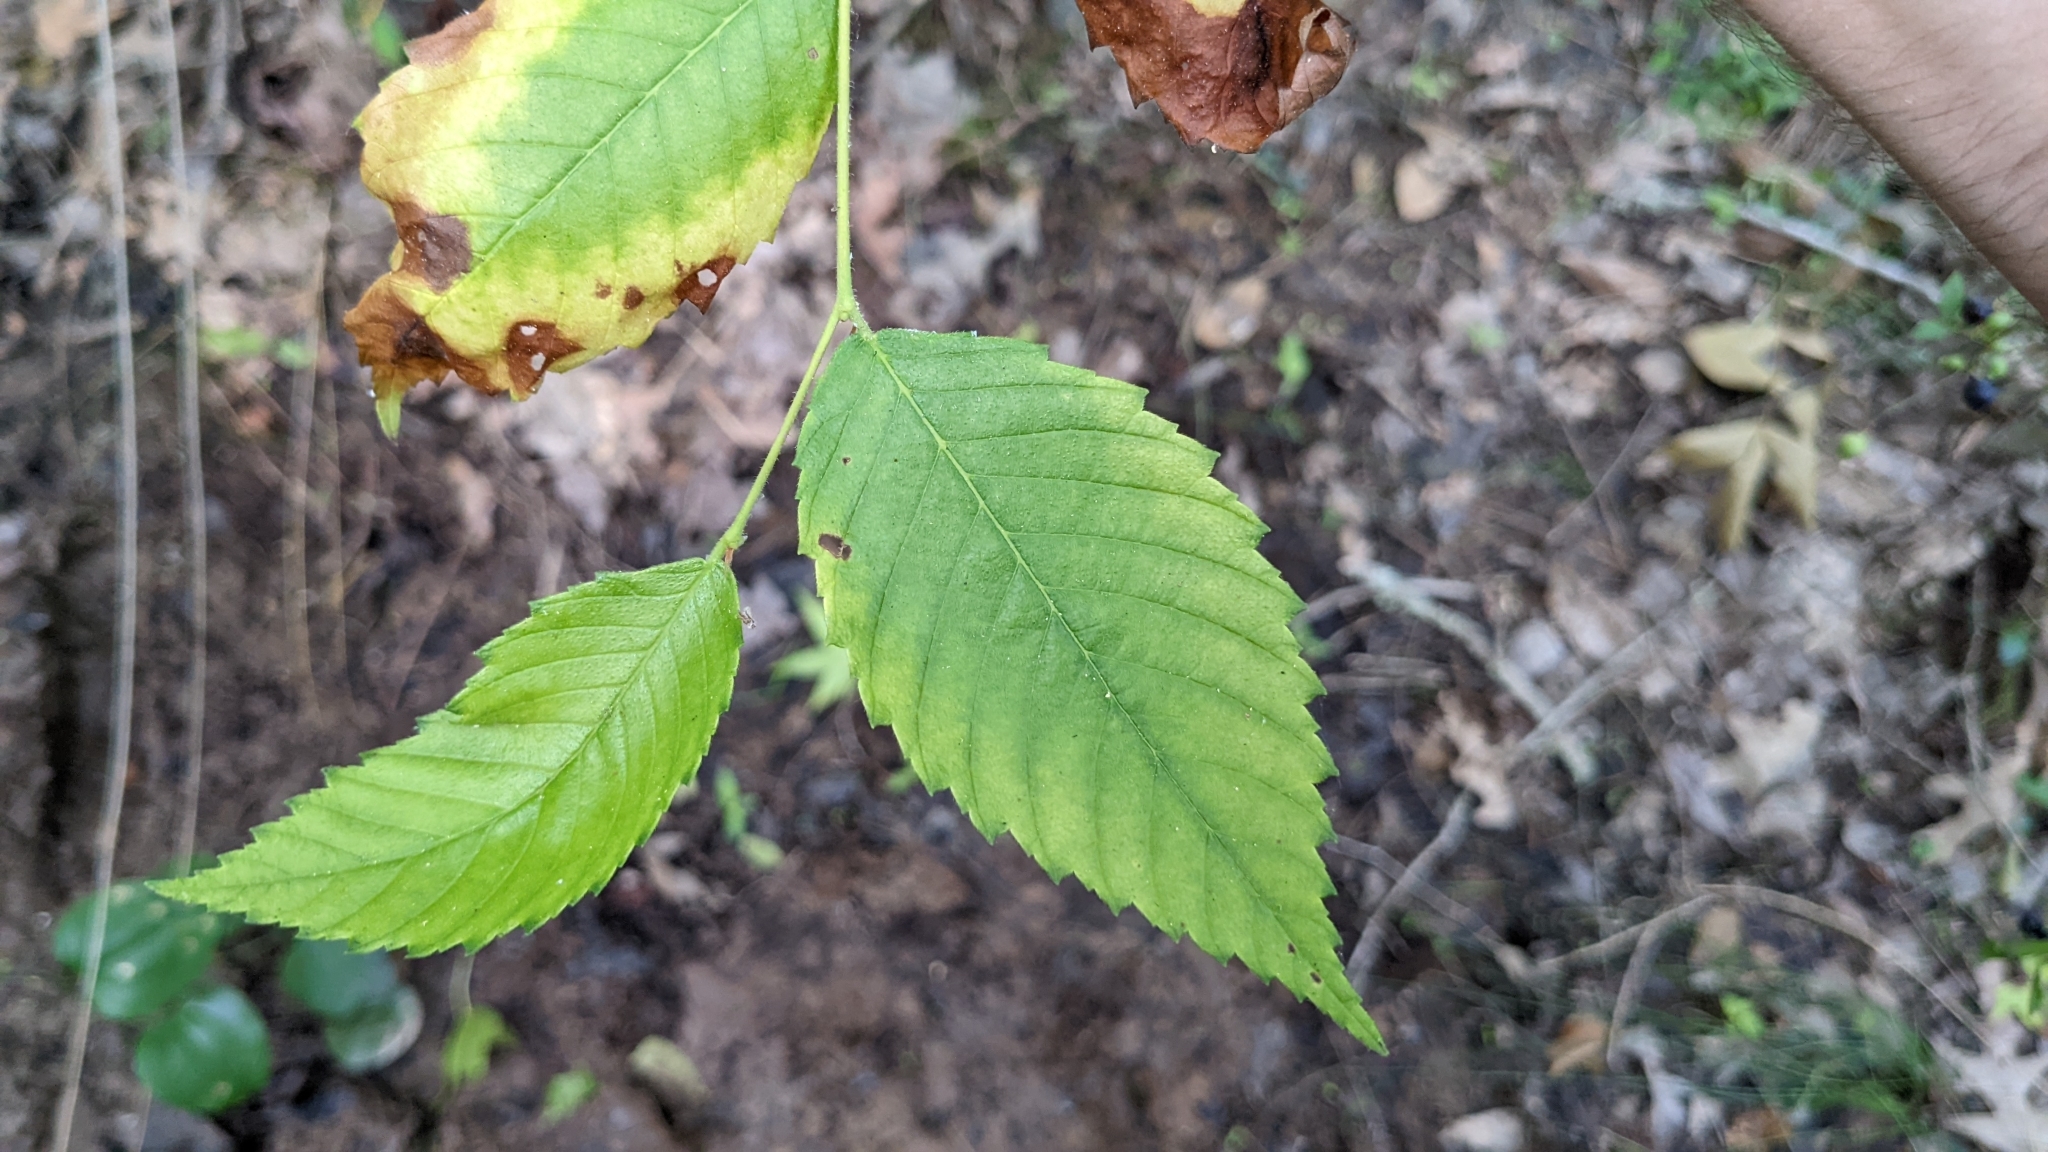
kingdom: Plantae
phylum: Tracheophyta
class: Magnoliopsida
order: Rosales
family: Ulmaceae
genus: Ulmus
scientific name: Ulmus americana
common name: American elm
